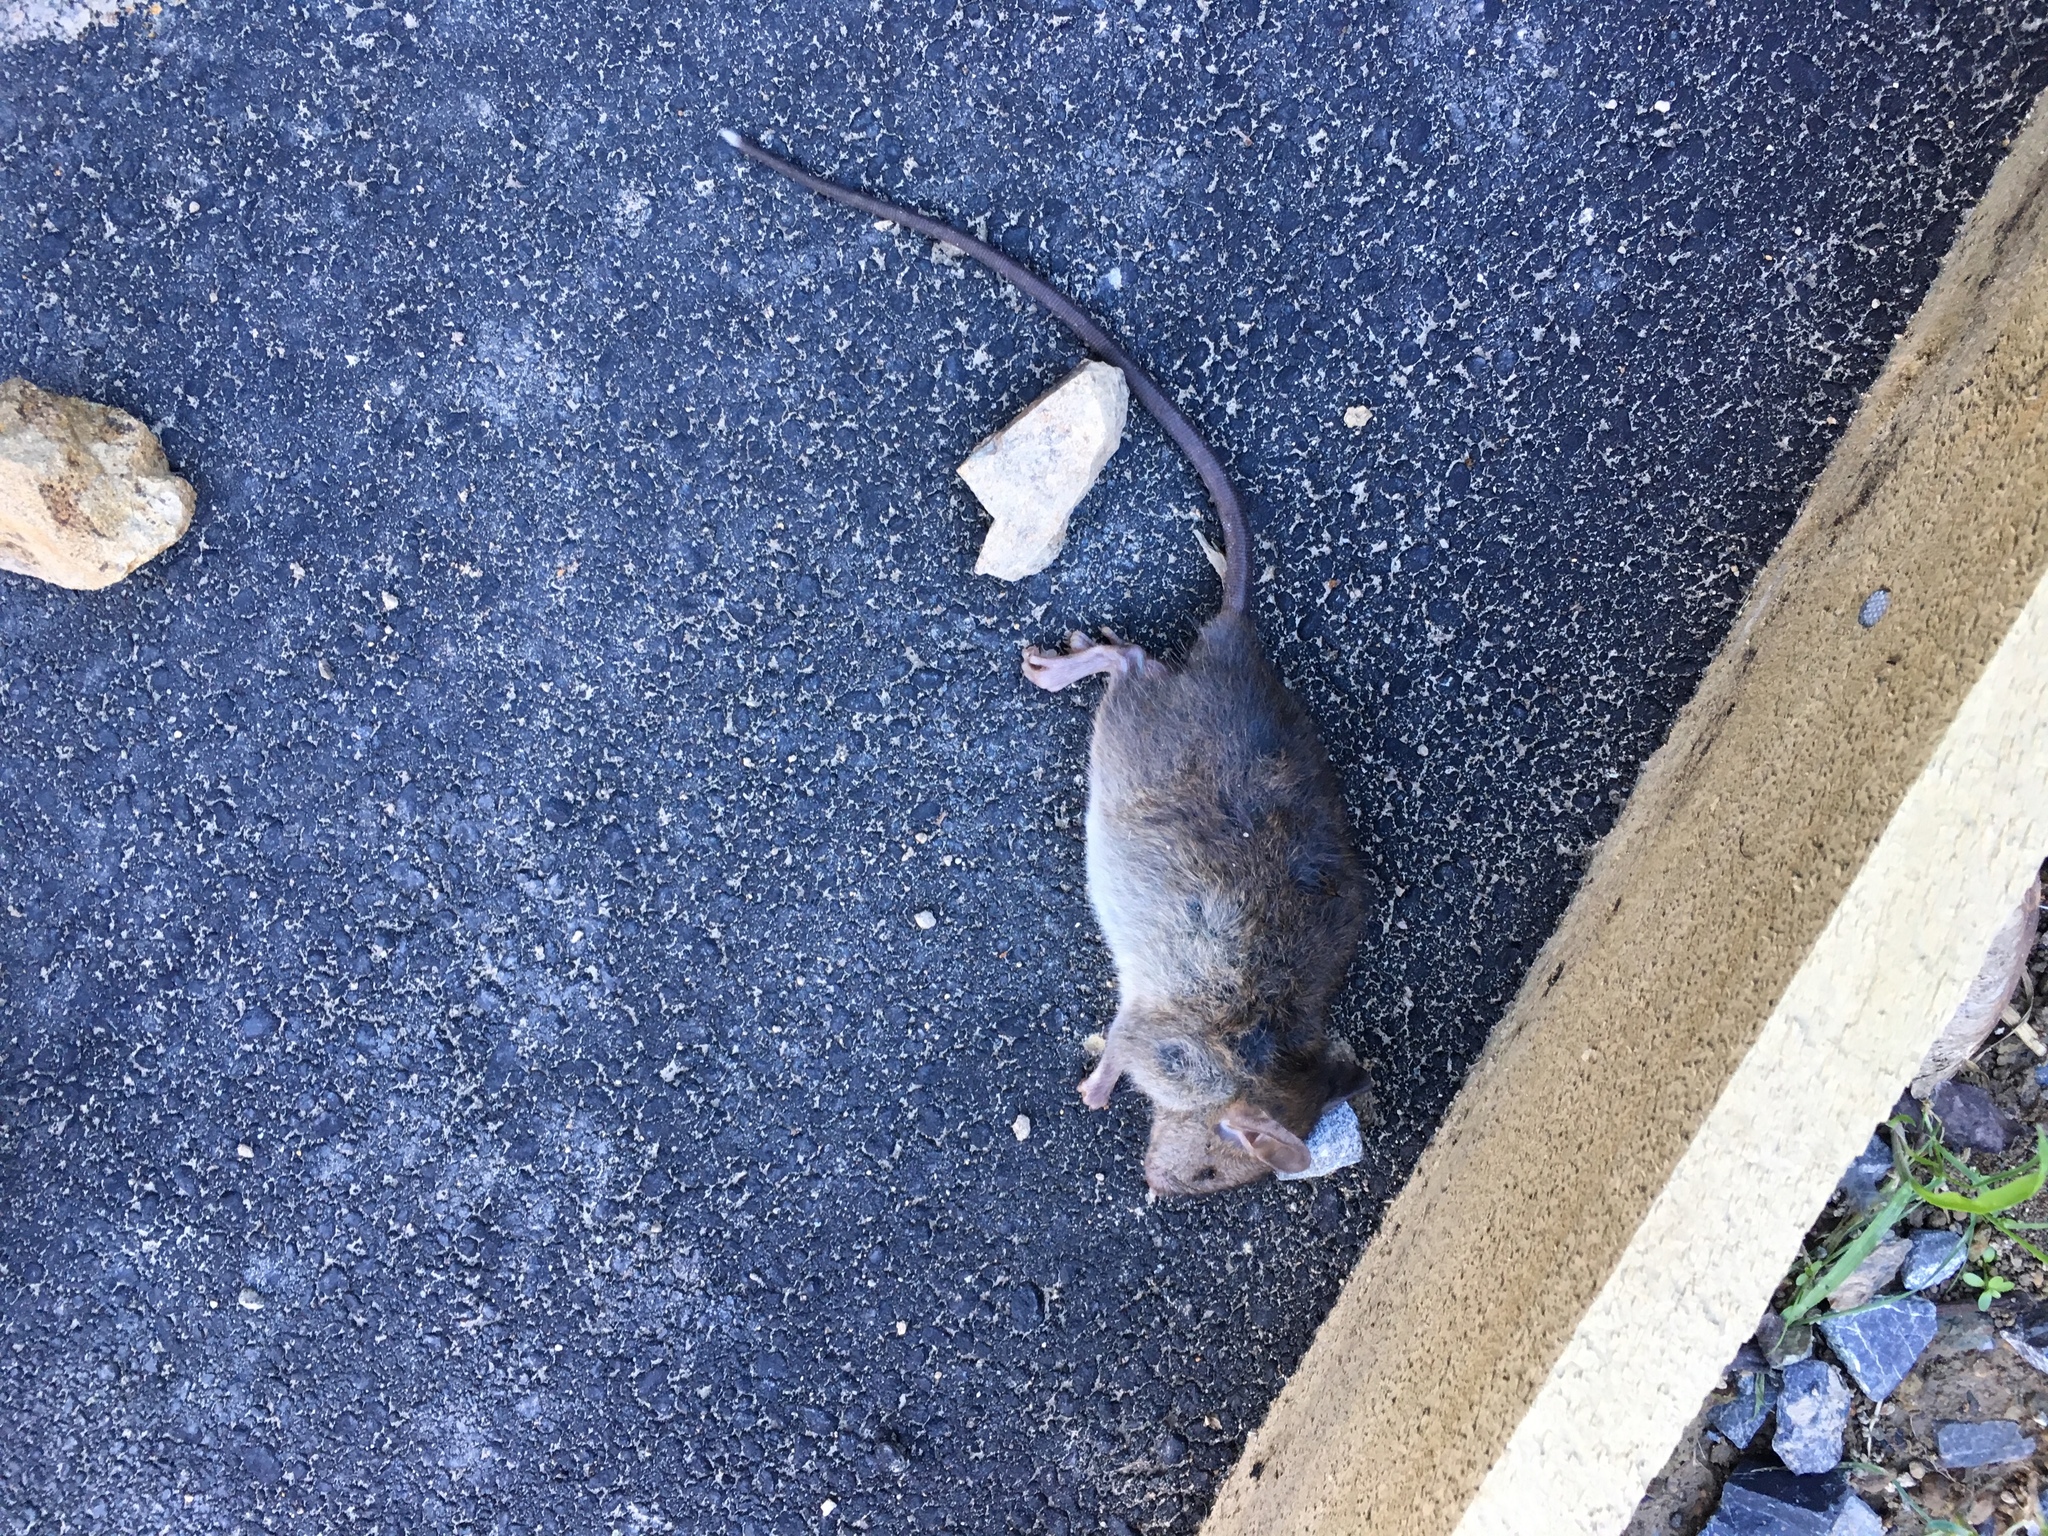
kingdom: Animalia
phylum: Chordata
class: Mammalia
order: Rodentia
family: Muridae
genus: Rattus
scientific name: Rattus rattus
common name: Black rat
